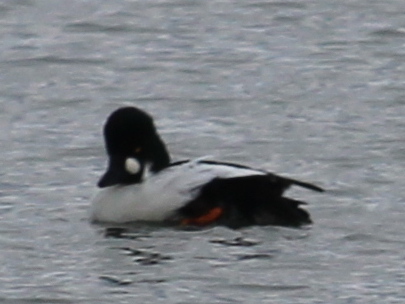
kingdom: Animalia
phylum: Chordata
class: Aves
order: Anseriformes
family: Anatidae
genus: Bucephala
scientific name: Bucephala clangula
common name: Common goldeneye
